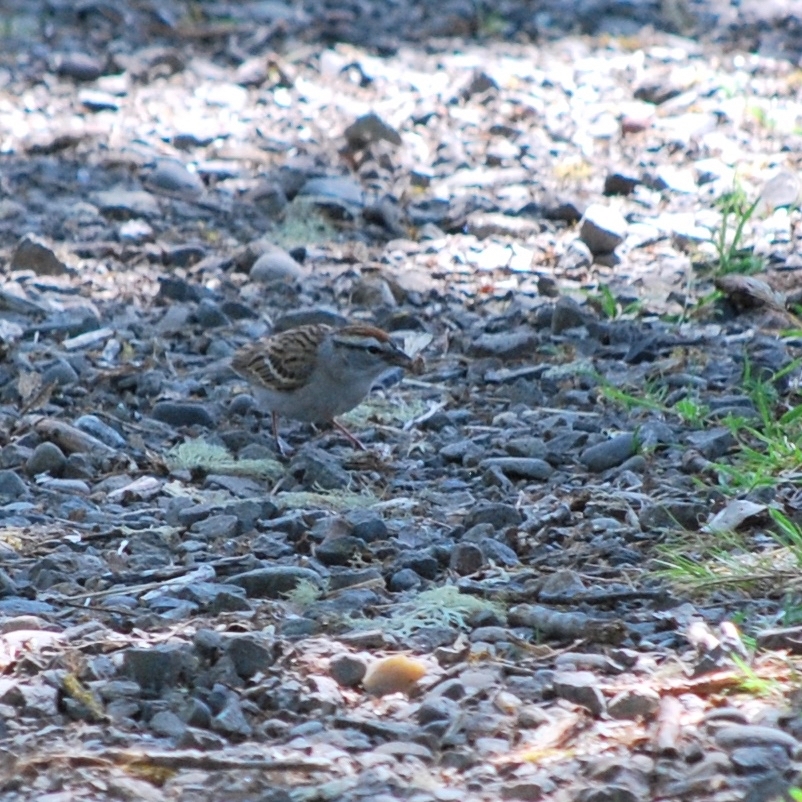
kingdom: Animalia
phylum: Chordata
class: Aves
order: Passeriformes
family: Passerellidae
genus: Spizella
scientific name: Spizella passerina
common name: Chipping sparrow
